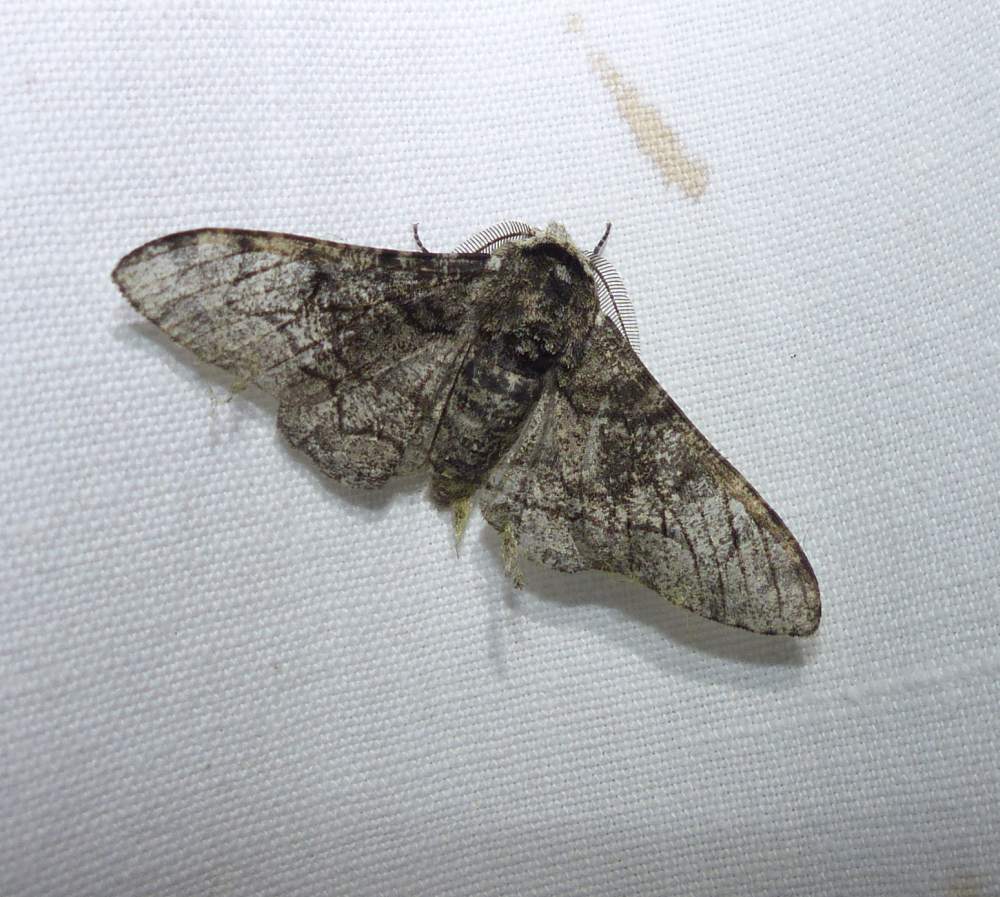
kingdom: Animalia
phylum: Arthropoda
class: Insecta
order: Lepidoptera
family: Geometridae
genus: Biston
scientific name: Biston betularia
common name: Peppered moth
